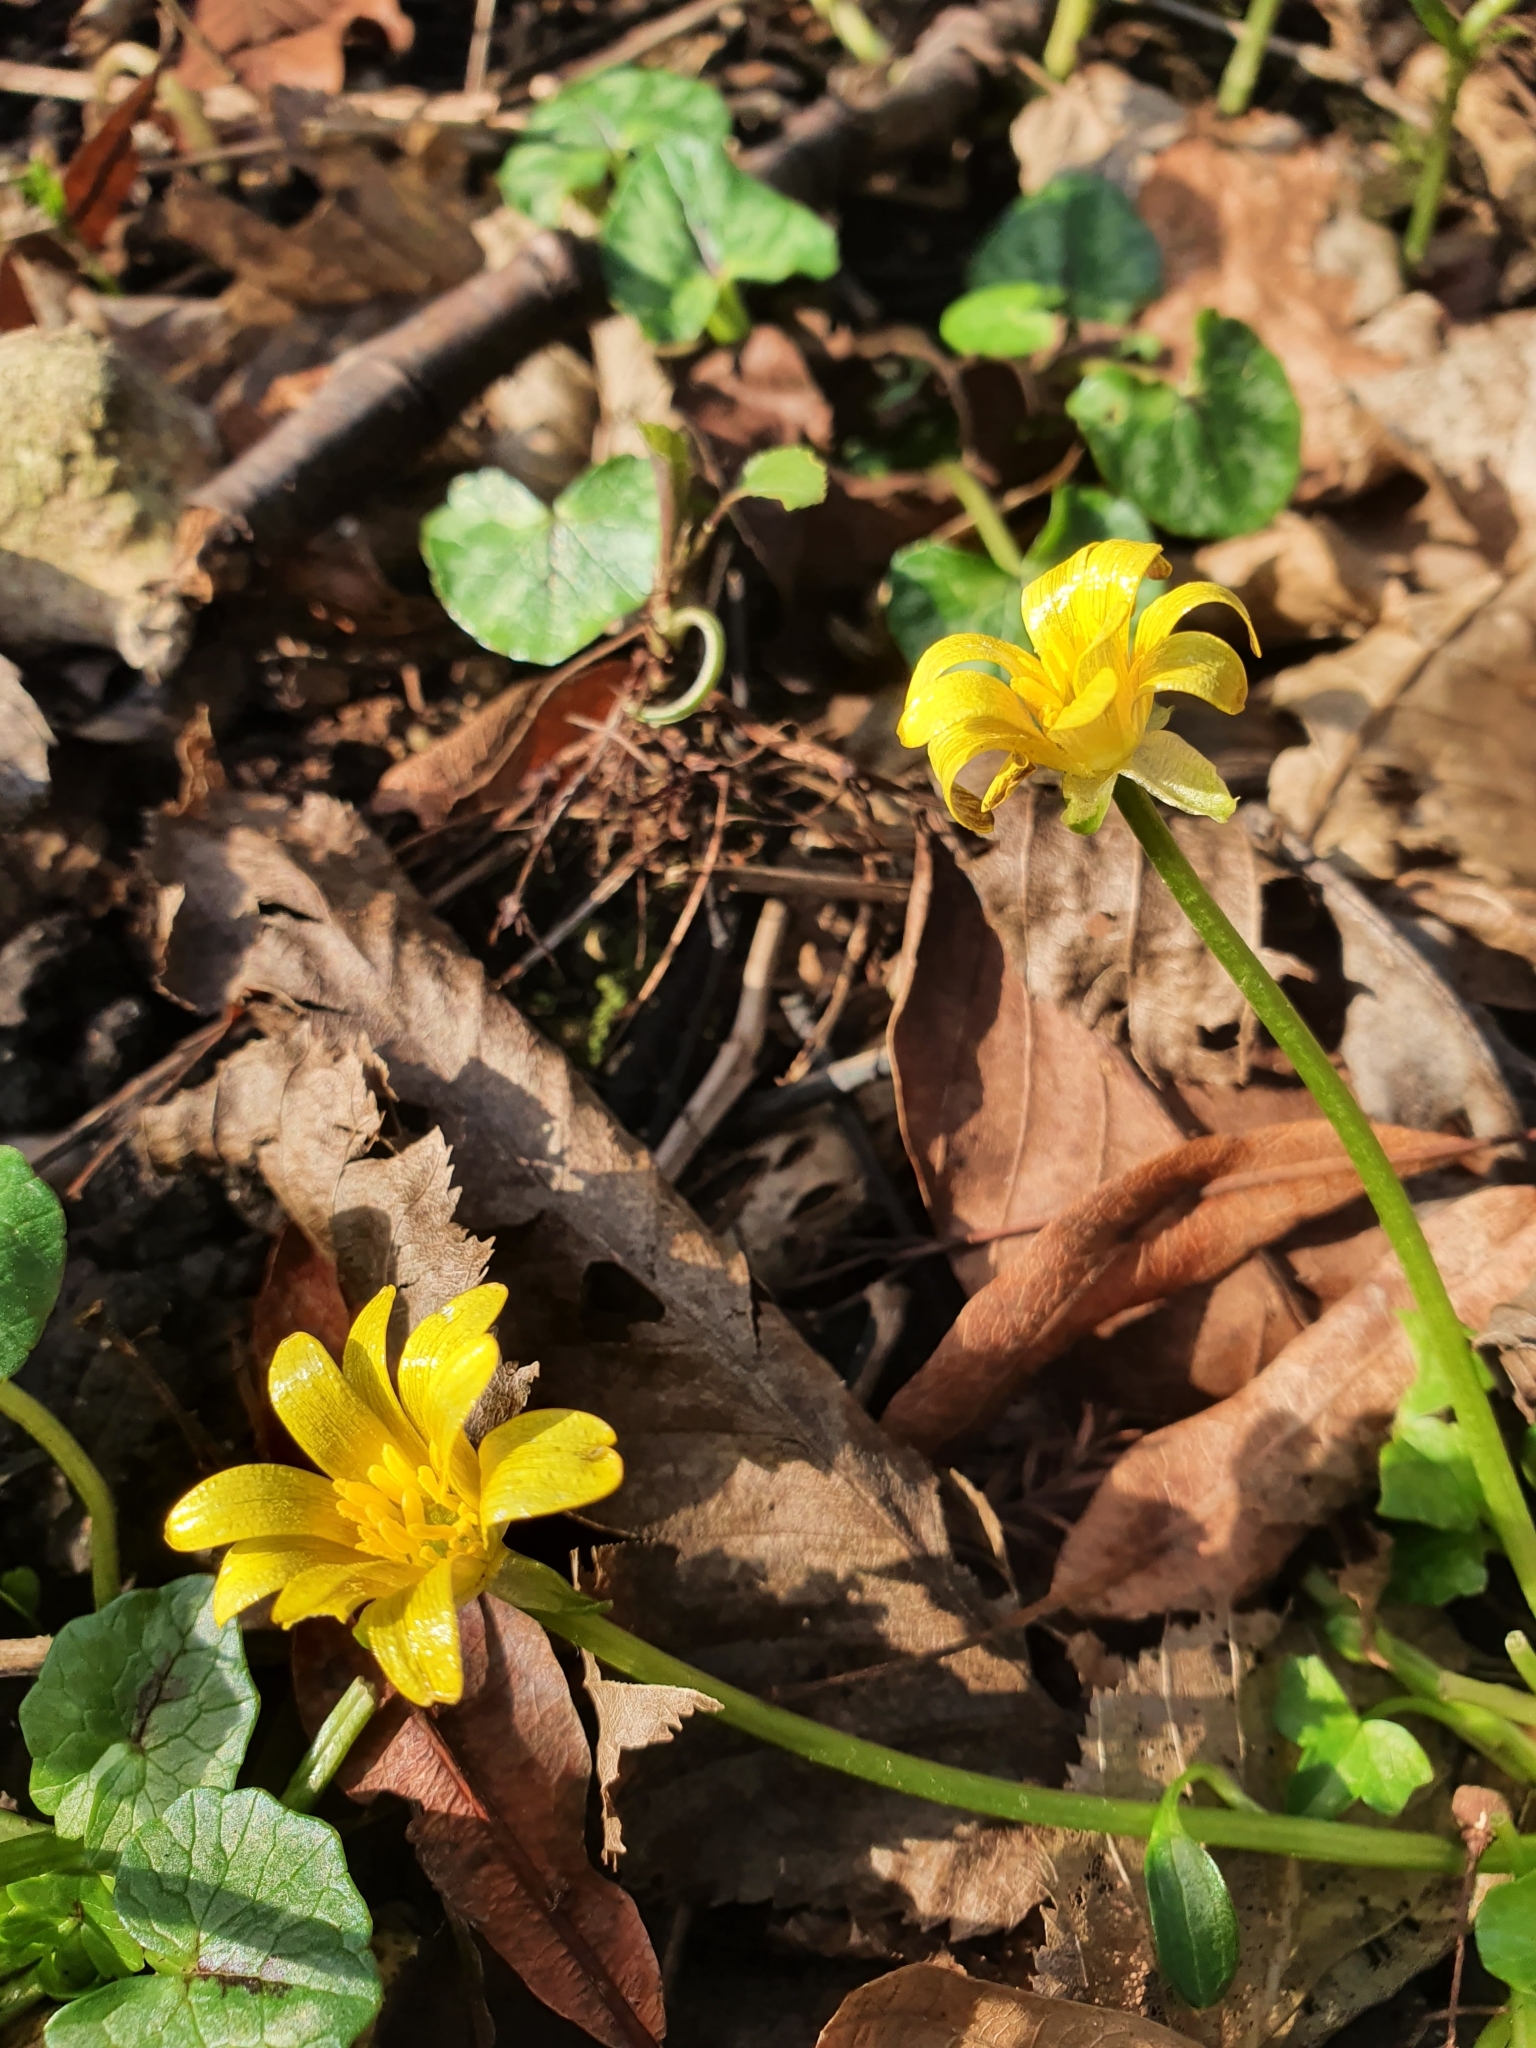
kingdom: Plantae
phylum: Tracheophyta
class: Magnoliopsida
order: Ranunculales
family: Ranunculaceae
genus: Ficaria
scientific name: Ficaria verna
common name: Lesser celandine
